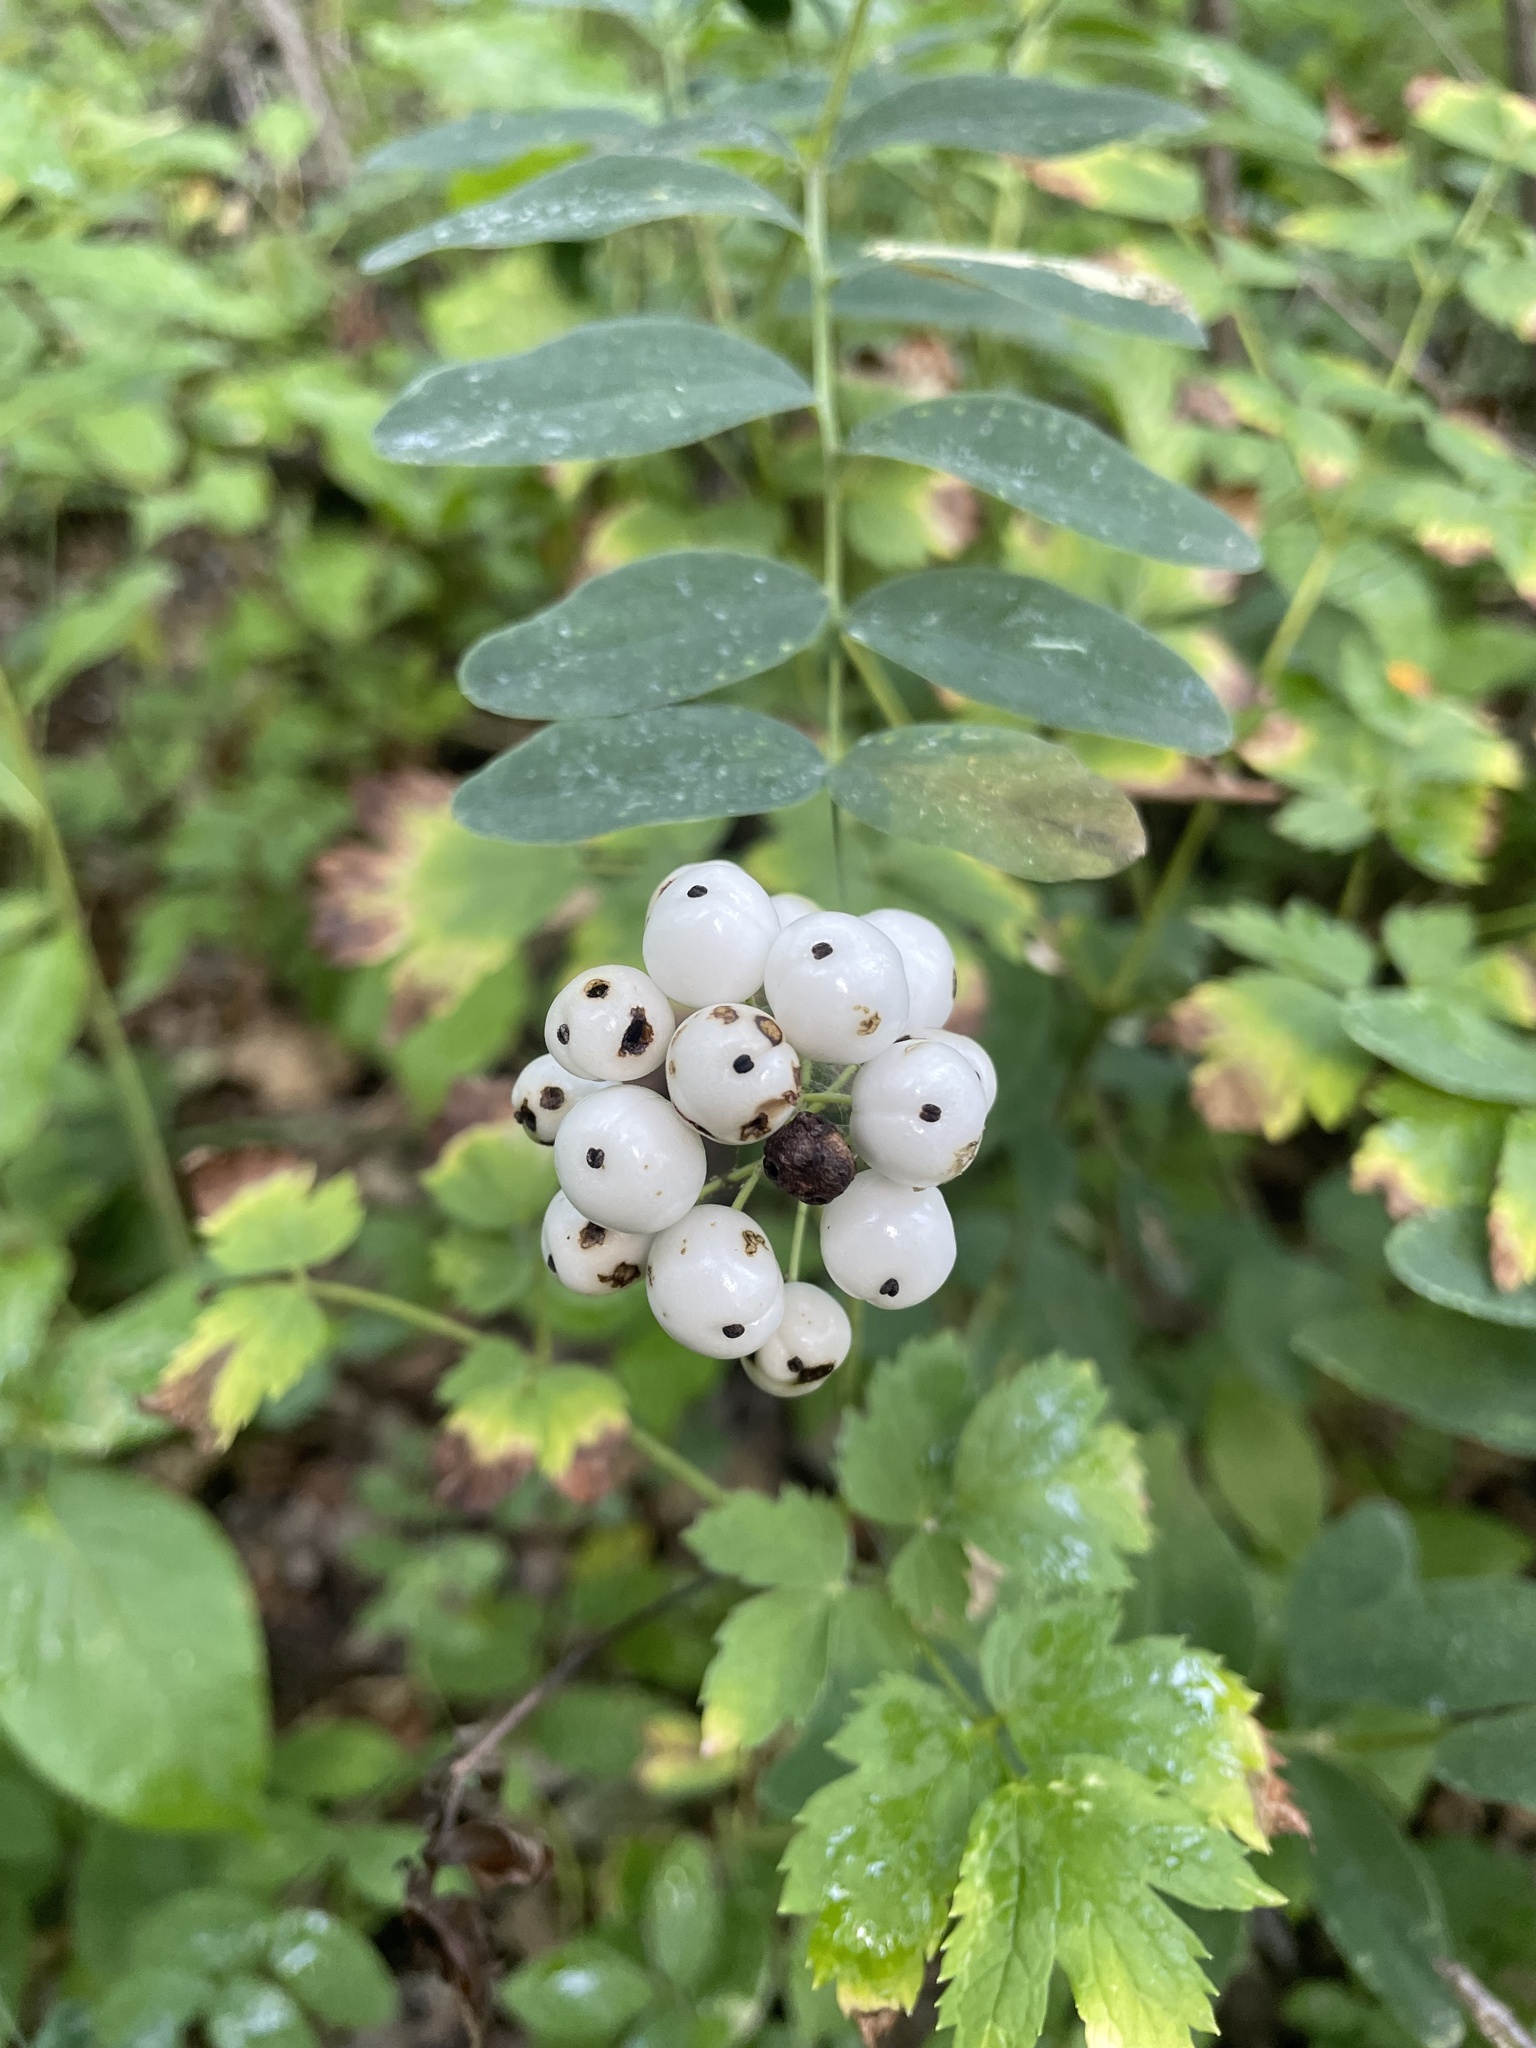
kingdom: Plantae
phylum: Tracheophyta
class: Magnoliopsida
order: Ranunculales
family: Ranunculaceae
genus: Actaea
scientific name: Actaea rubra
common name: Red baneberry
